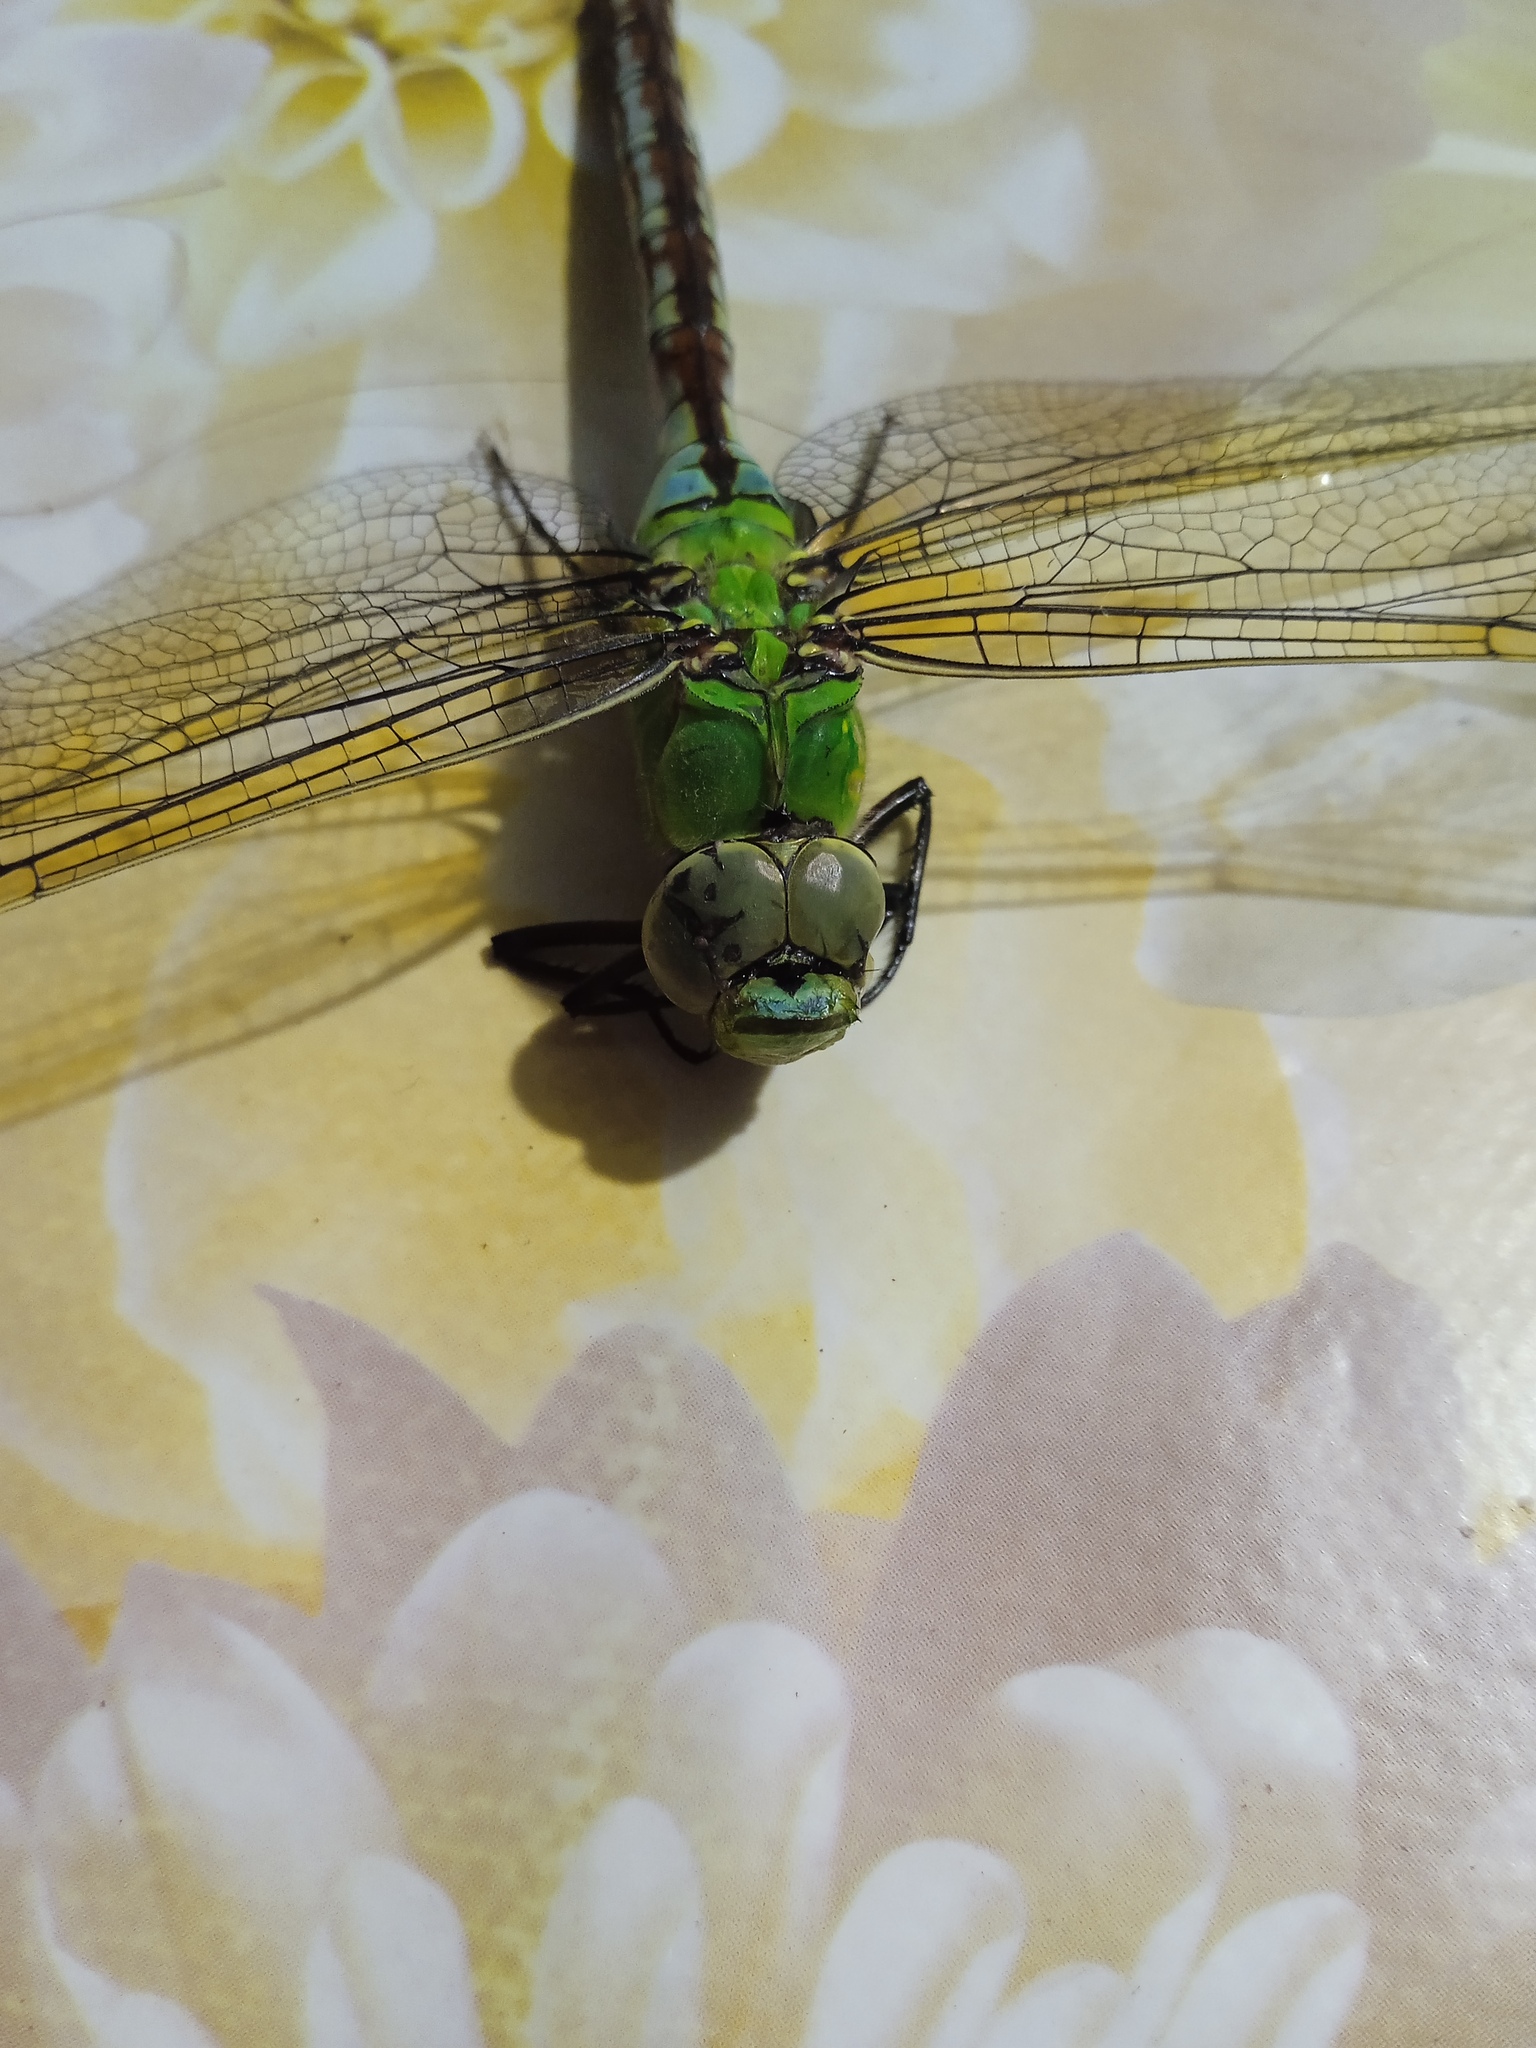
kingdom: Animalia
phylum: Arthropoda
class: Insecta
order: Odonata
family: Aeshnidae
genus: Anax
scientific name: Anax imperator
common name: Emperor dragonfly
